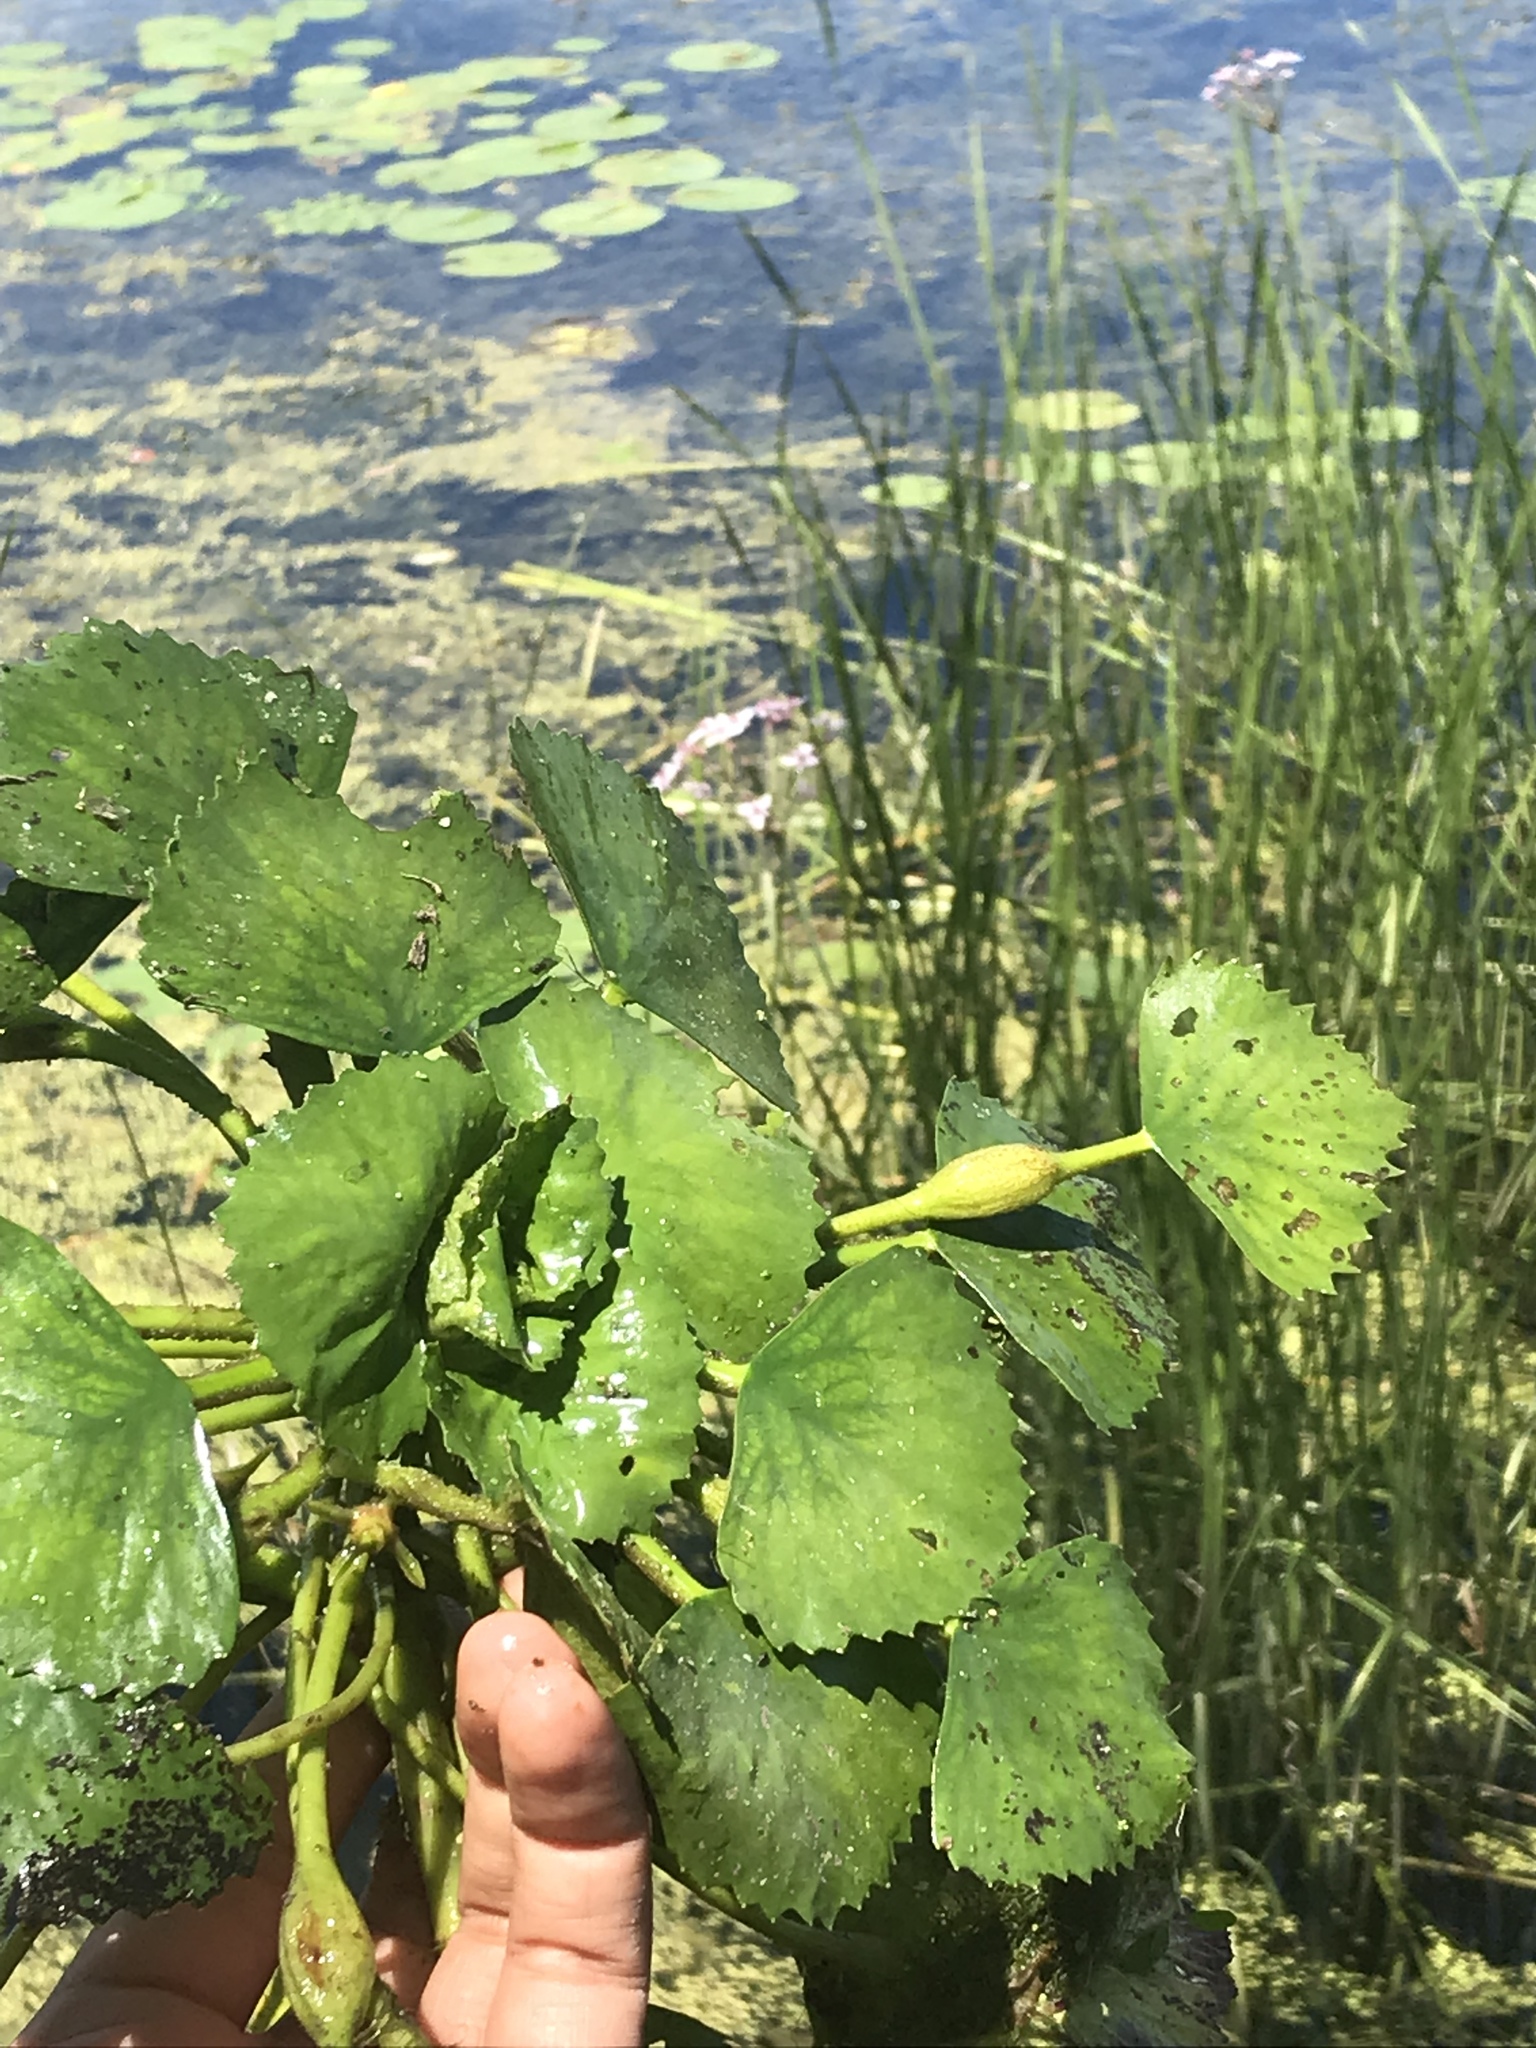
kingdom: Plantae
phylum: Tracheophyta
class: Magnoliopsida
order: Myrtales
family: Lythraceae
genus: Trapa
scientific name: Trapa natans
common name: Water chestnut
